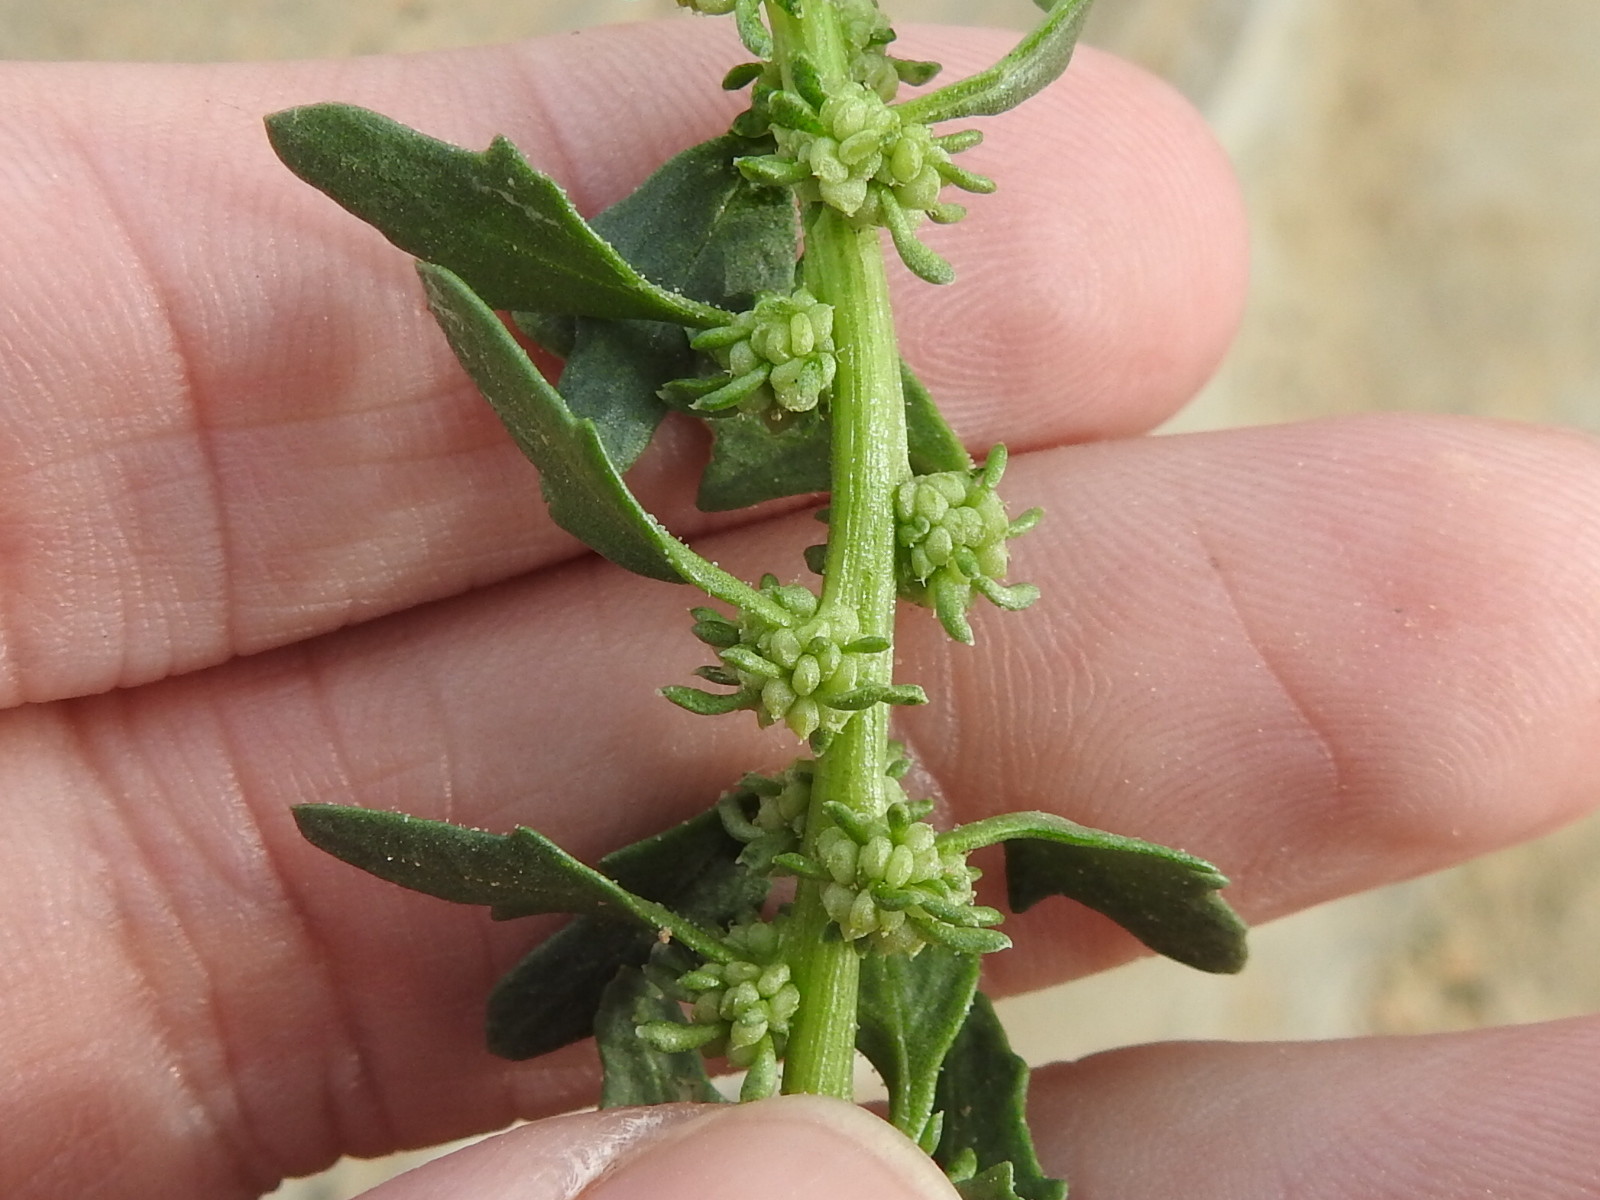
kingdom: Plantae
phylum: Tracheophyta
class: Magnoliopsida
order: Caryophyllales
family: Amaranthaceae
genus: Blitum
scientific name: Blitum nuttallianum
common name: Poverty-weed
